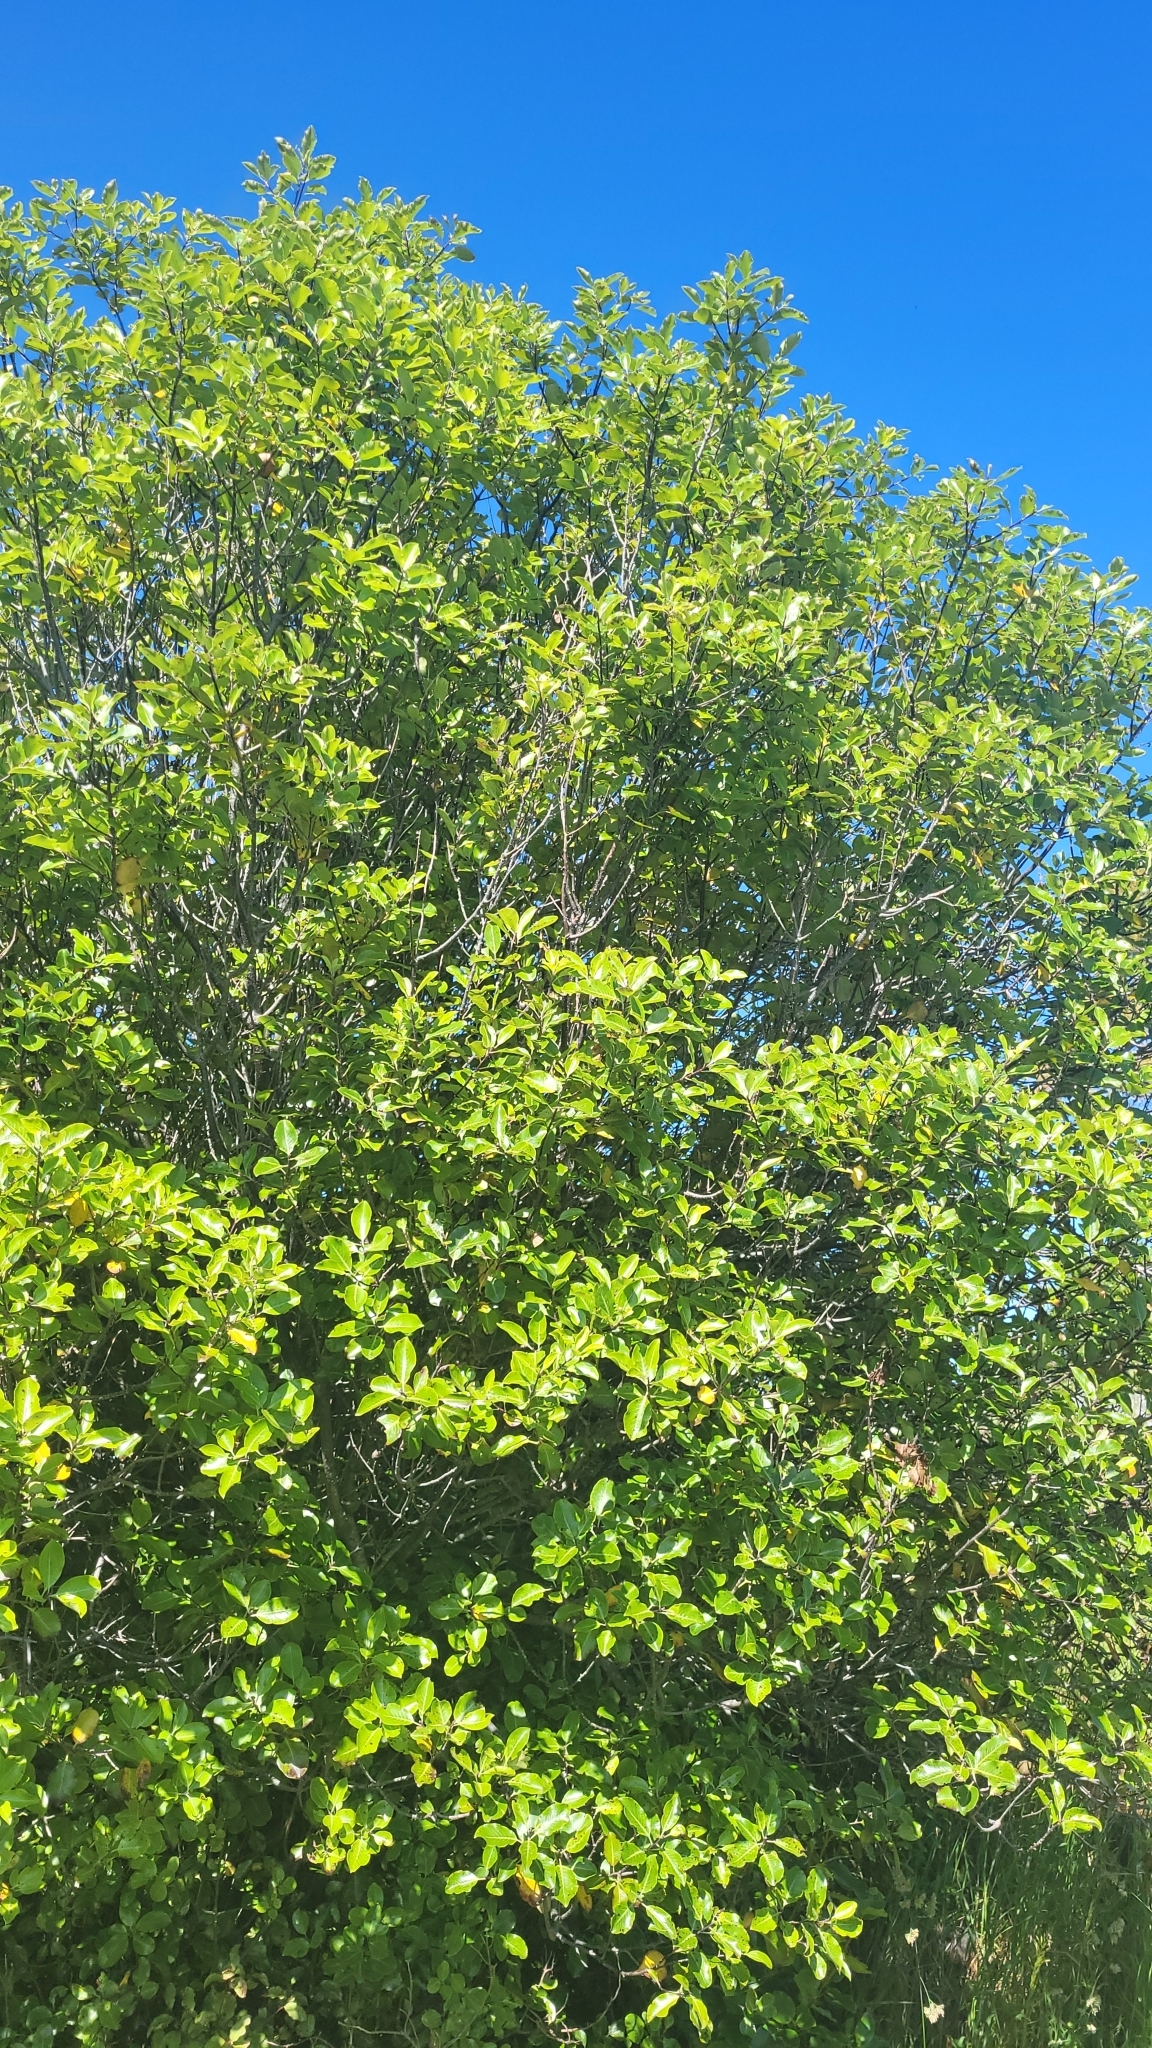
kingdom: Plantae
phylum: Tracheophyta
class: Magnoliopsida
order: Apiales
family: Pittosporaceae
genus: Pittosporum
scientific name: Pittosporum tenuifolium
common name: Kohuhu
